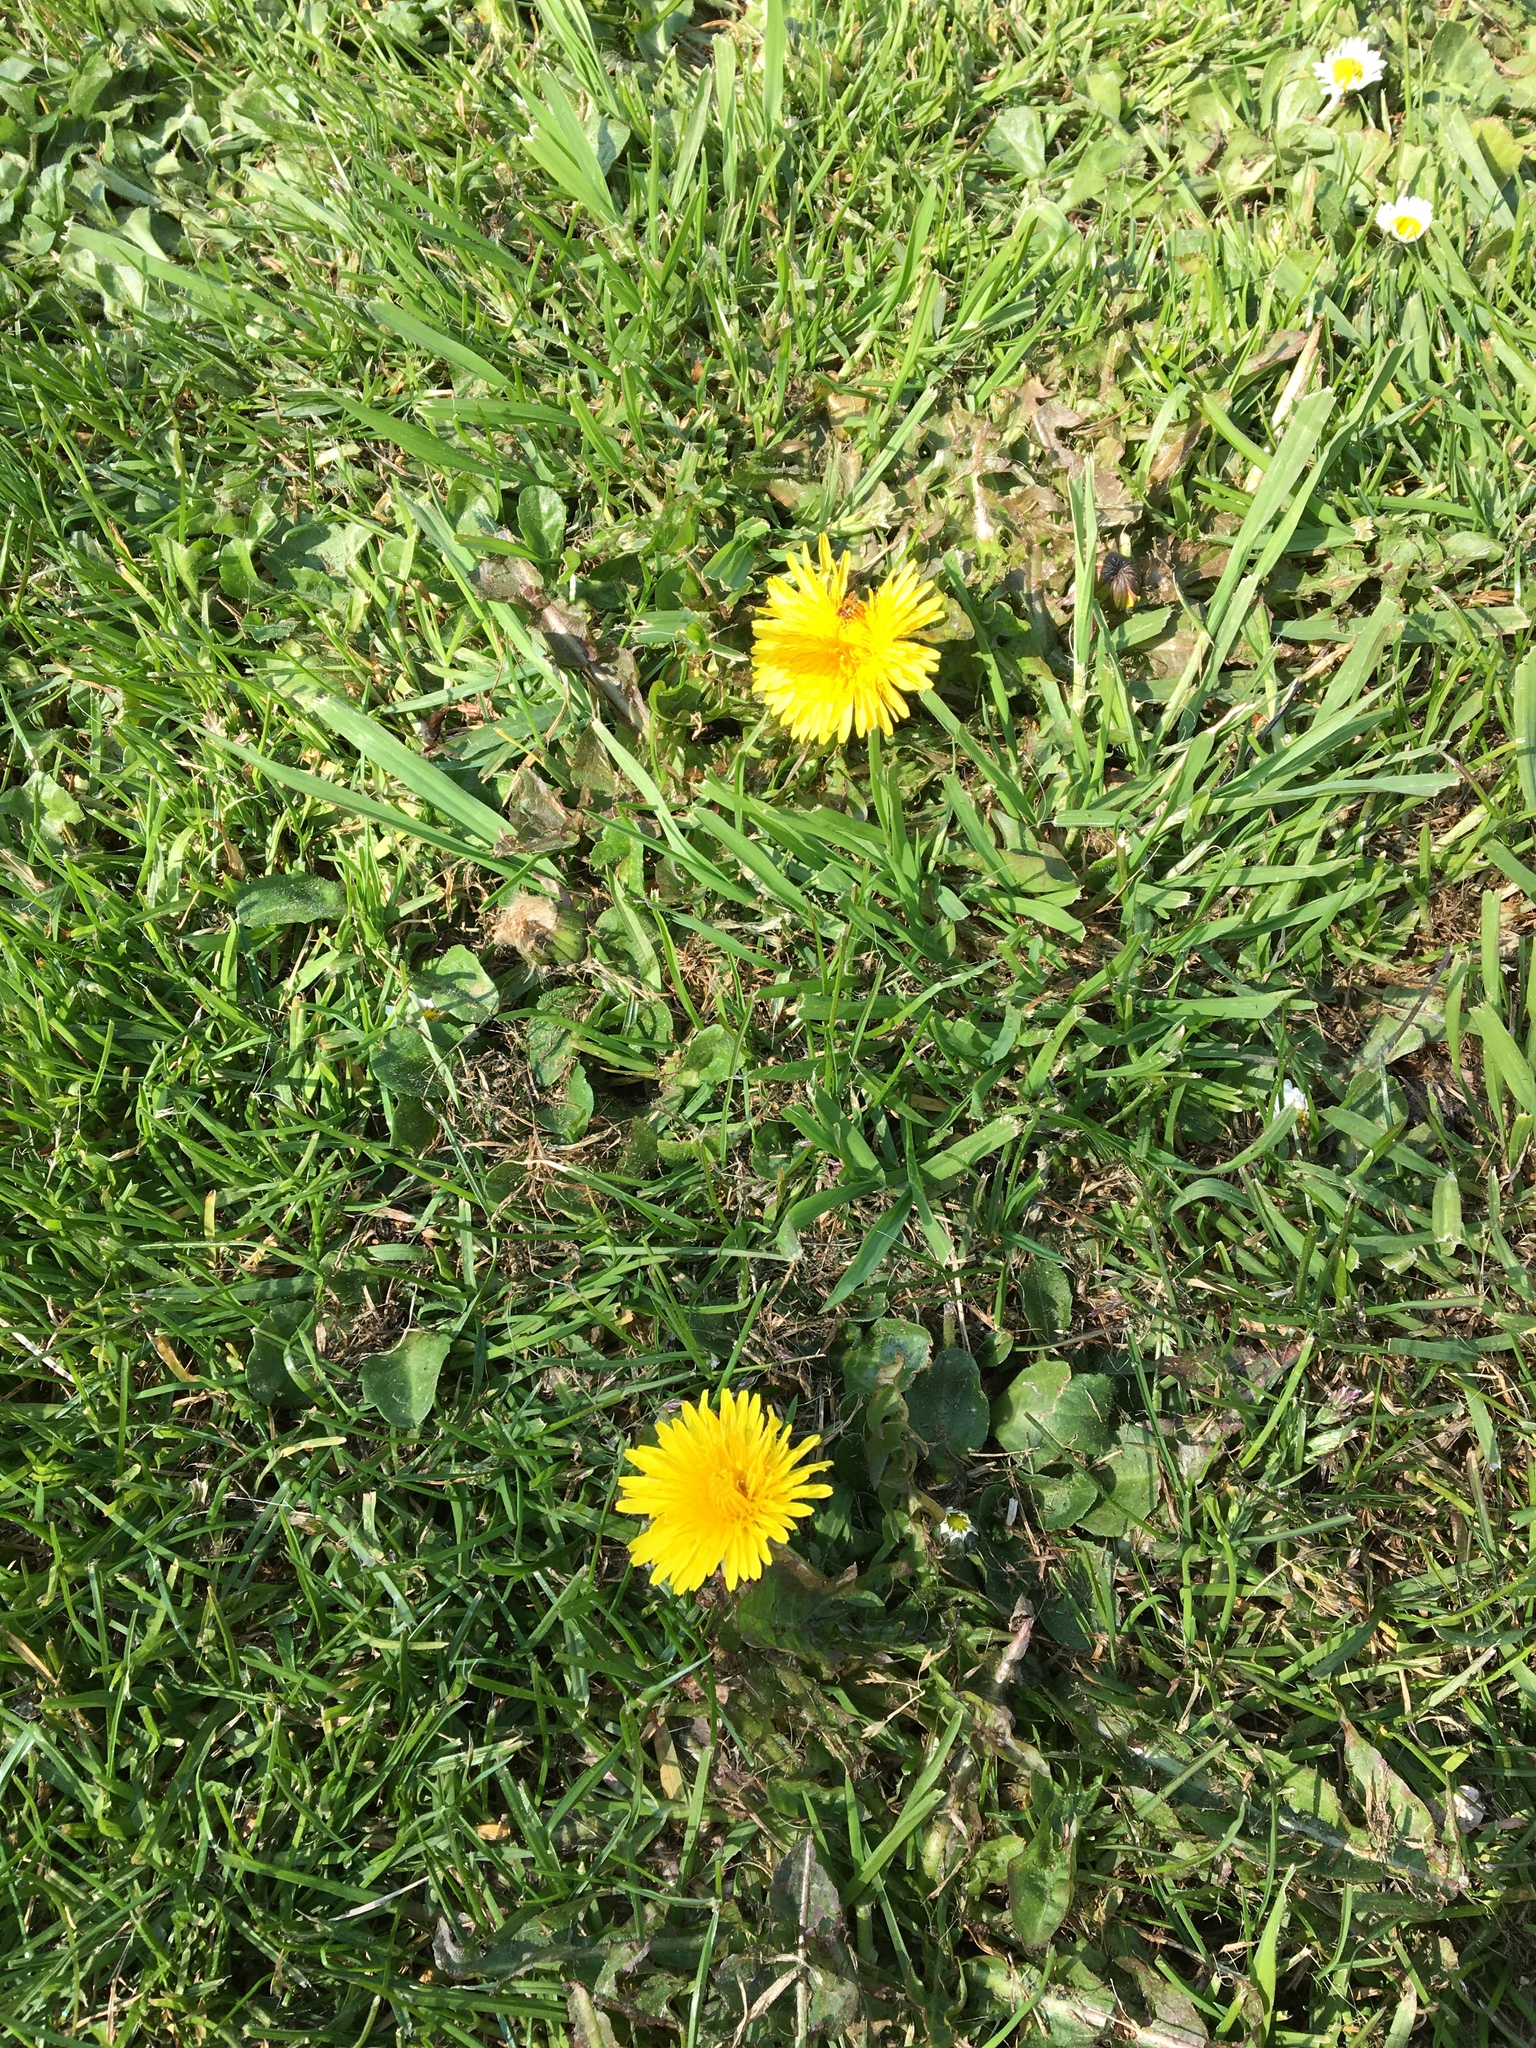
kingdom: Plantae
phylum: Tracheophyta
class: Magnoliopsida
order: Asterales
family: Asteraceae
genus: Taraxacum
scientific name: Taraxacum officinale
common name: Common dandelion
